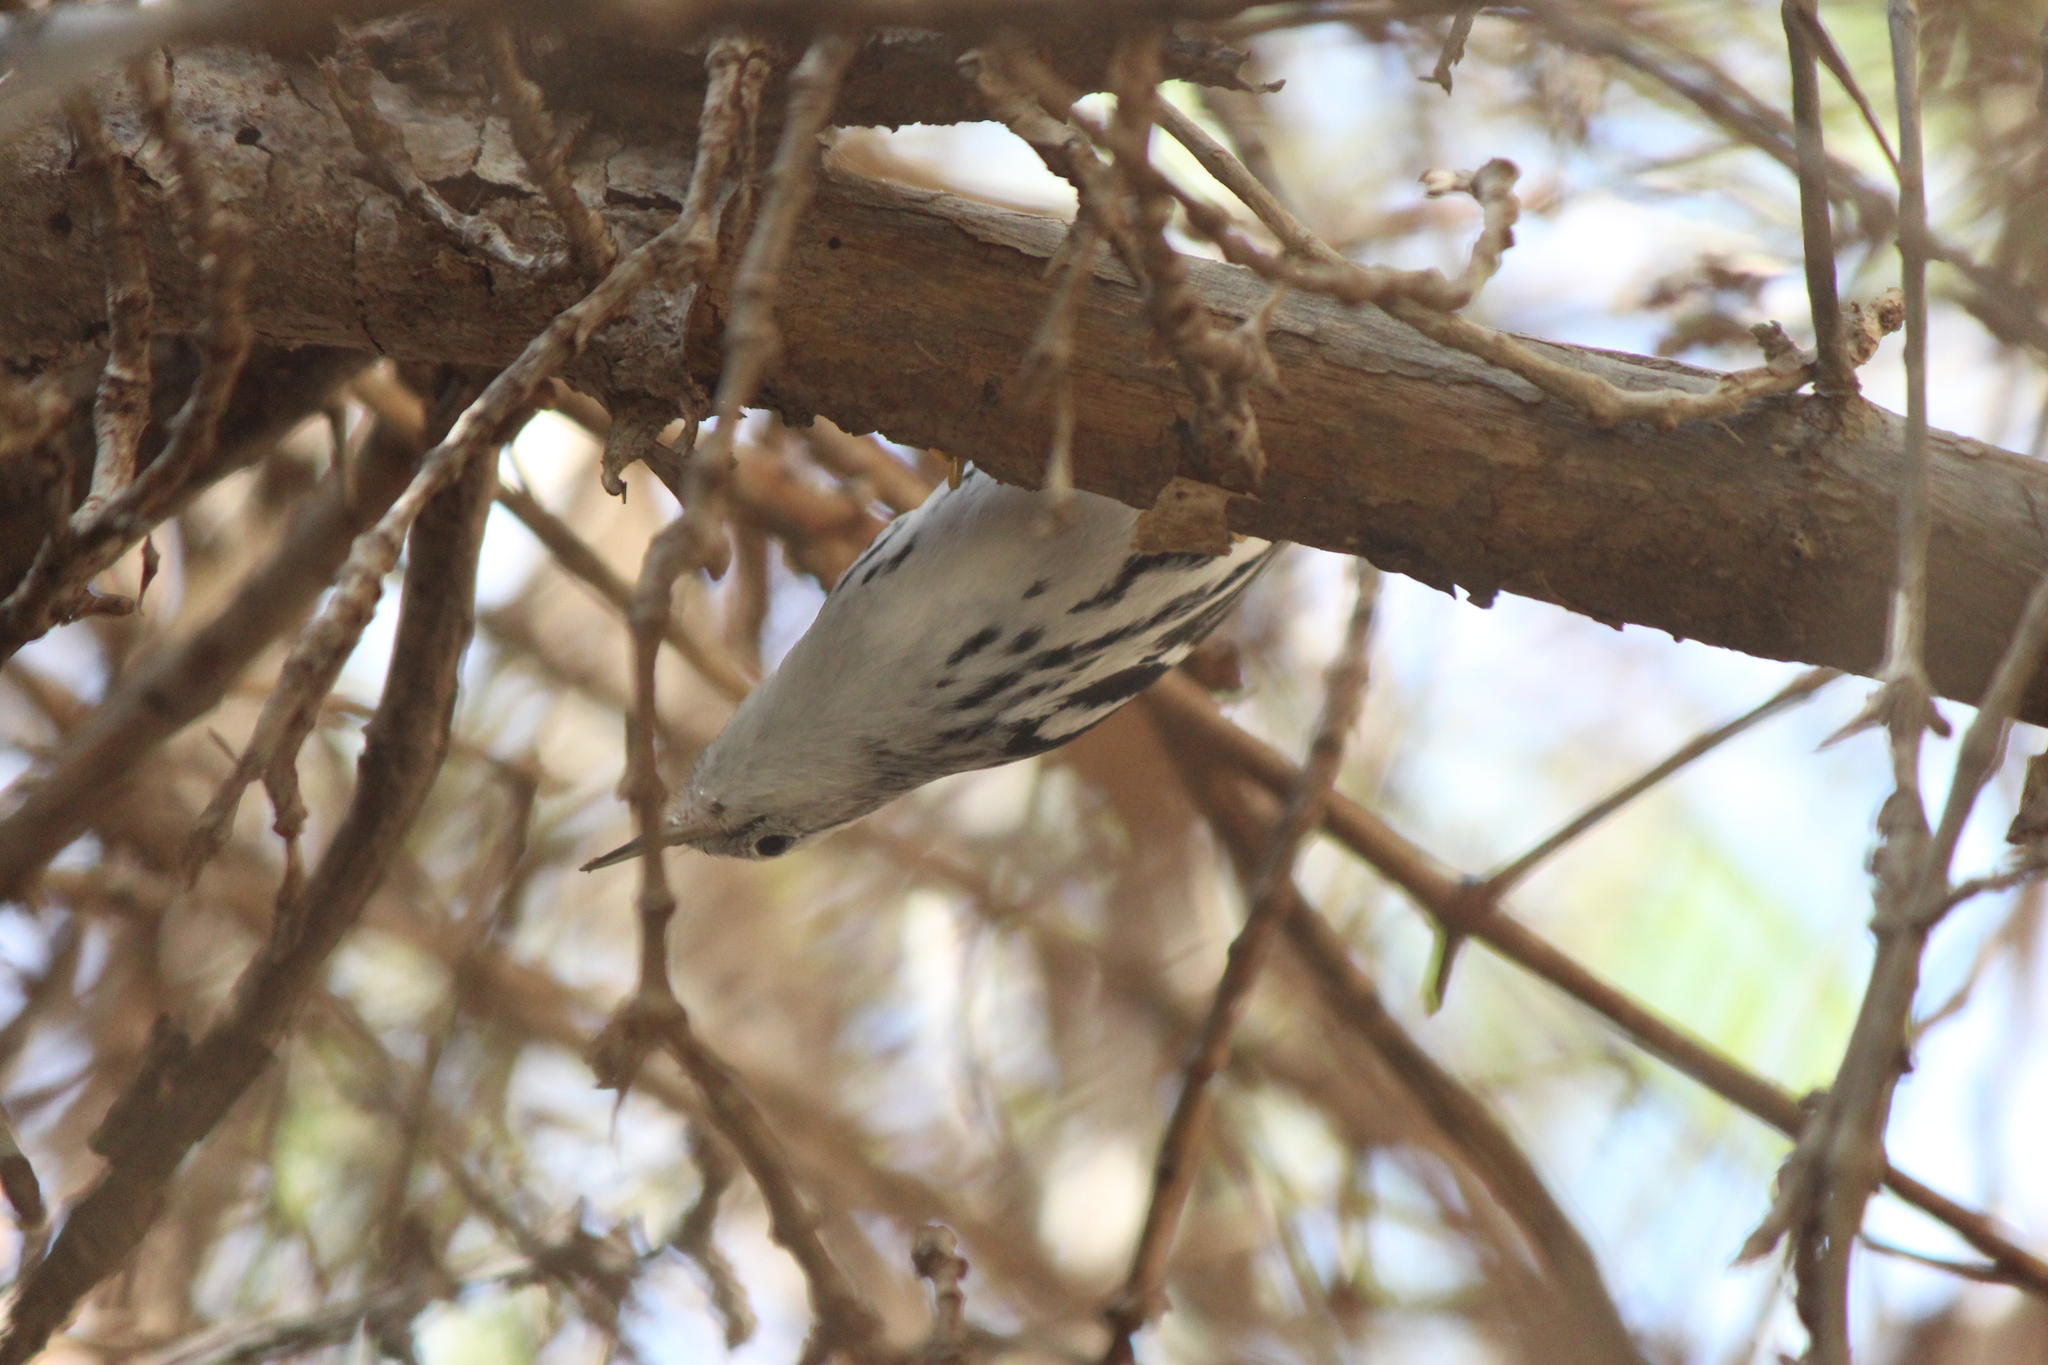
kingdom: Animalia
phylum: Chordata
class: Aves
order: Passeriformes
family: Parulidae
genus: Mniotilta
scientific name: Mniotilta varia
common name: Black-and-white warbler
